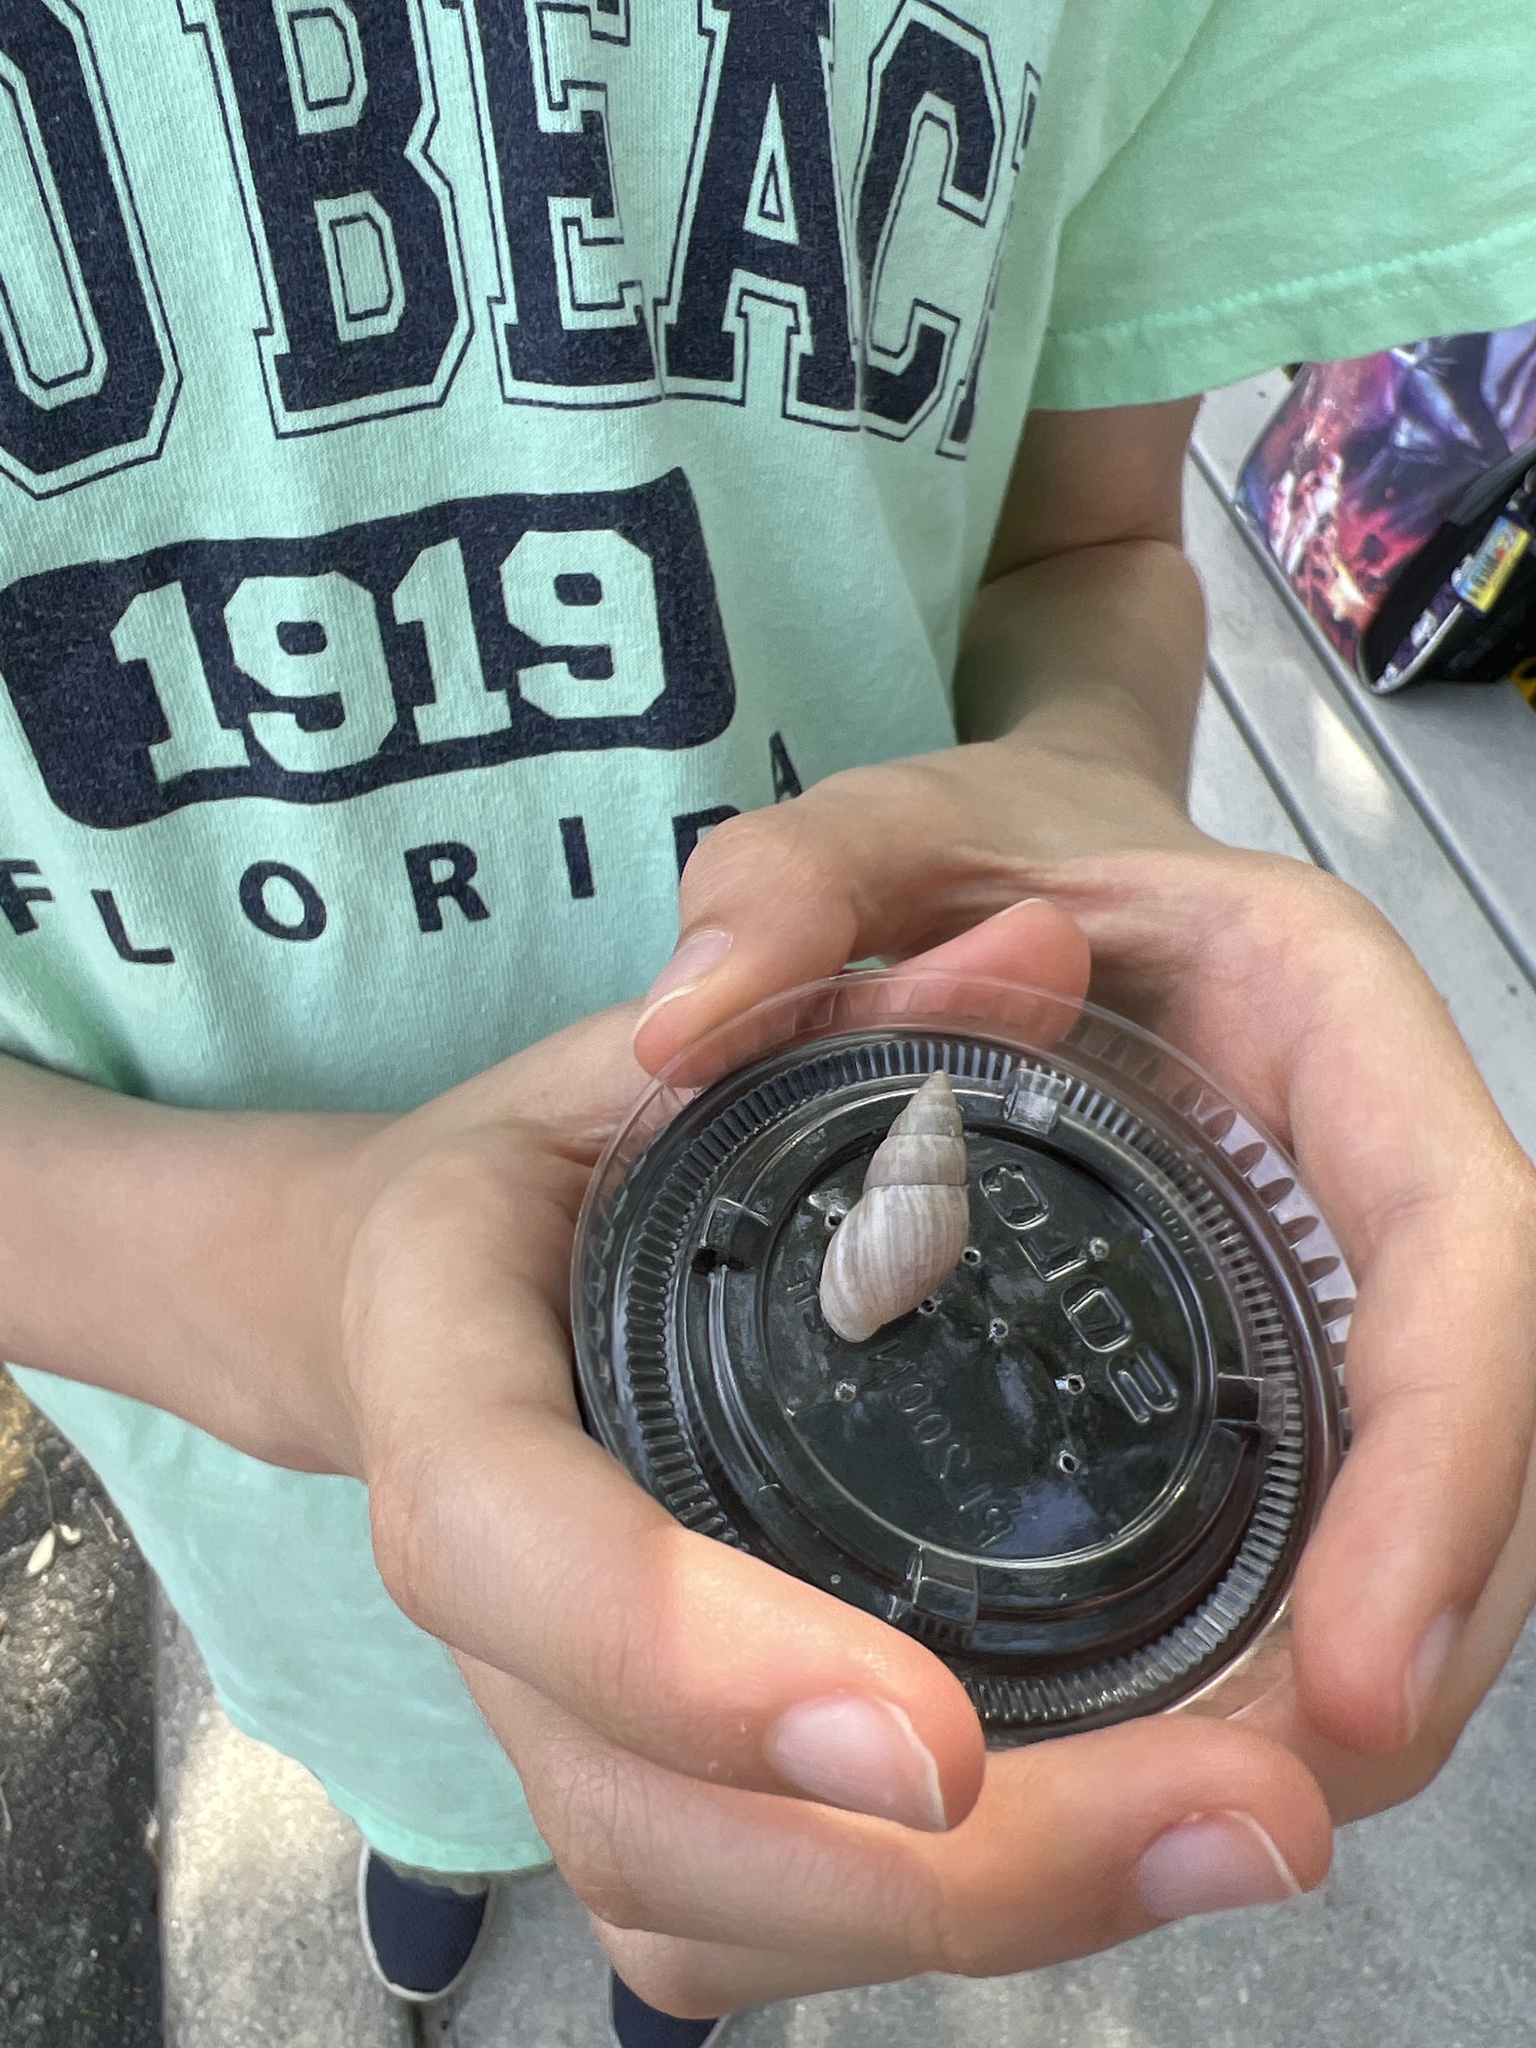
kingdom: Animalia
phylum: Mollusca
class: Gastropoda
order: Stylommatophora
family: Bulimulidae
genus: Bulimulus
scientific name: Bulimulus bonariensis
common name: Snail
